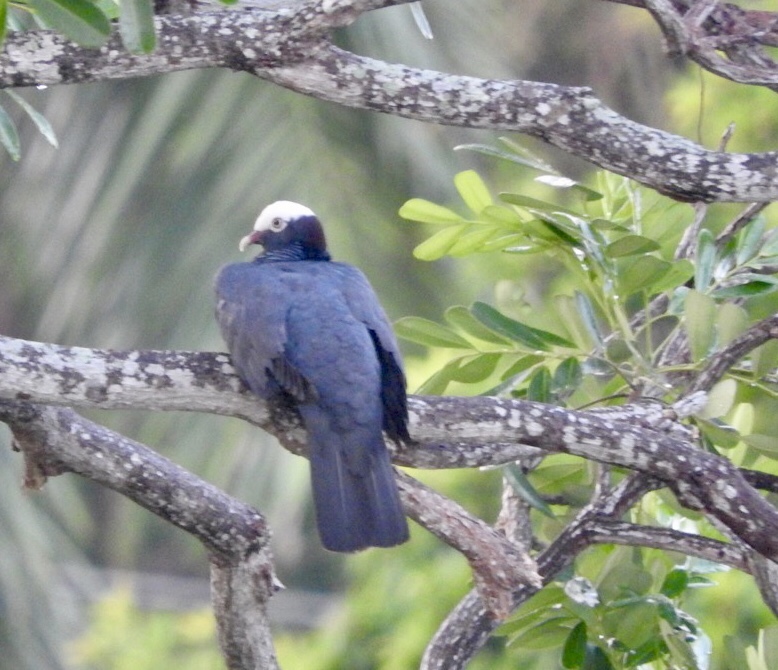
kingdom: Animalia
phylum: Chordata
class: Aves
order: Columbiformes
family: Columbidae
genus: Patagioenas
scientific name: Patagioenas leucocephala
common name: White-crowned pigeon
